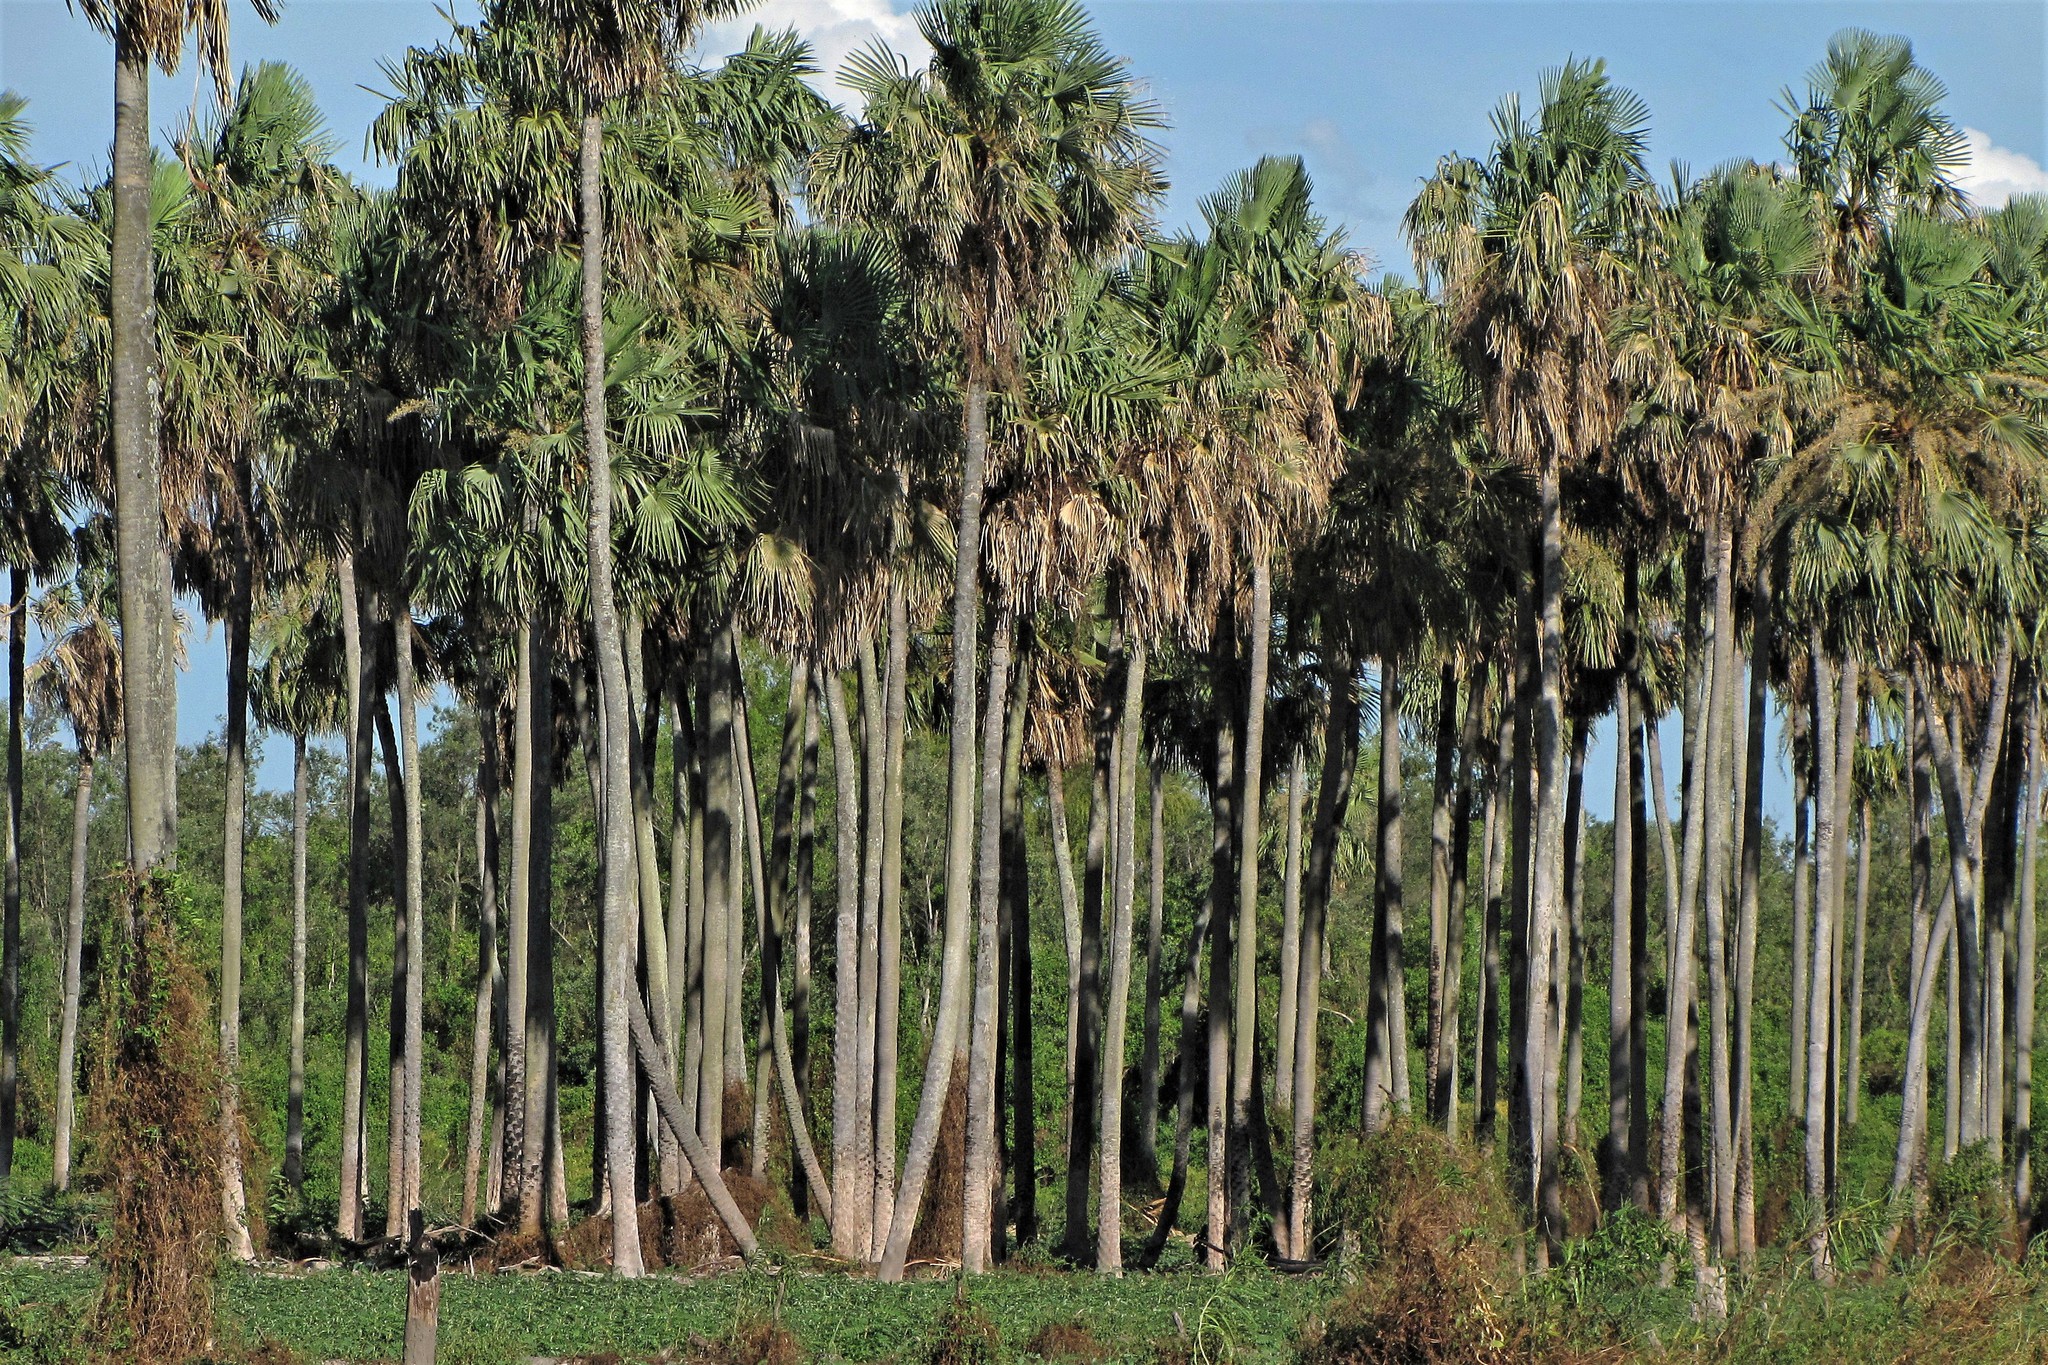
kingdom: Plantae
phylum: Tracheophyta
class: Liliopsida
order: Arecales
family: Arecaceae
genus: Copernicia
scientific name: Copernicia alba
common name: Caranday palm
